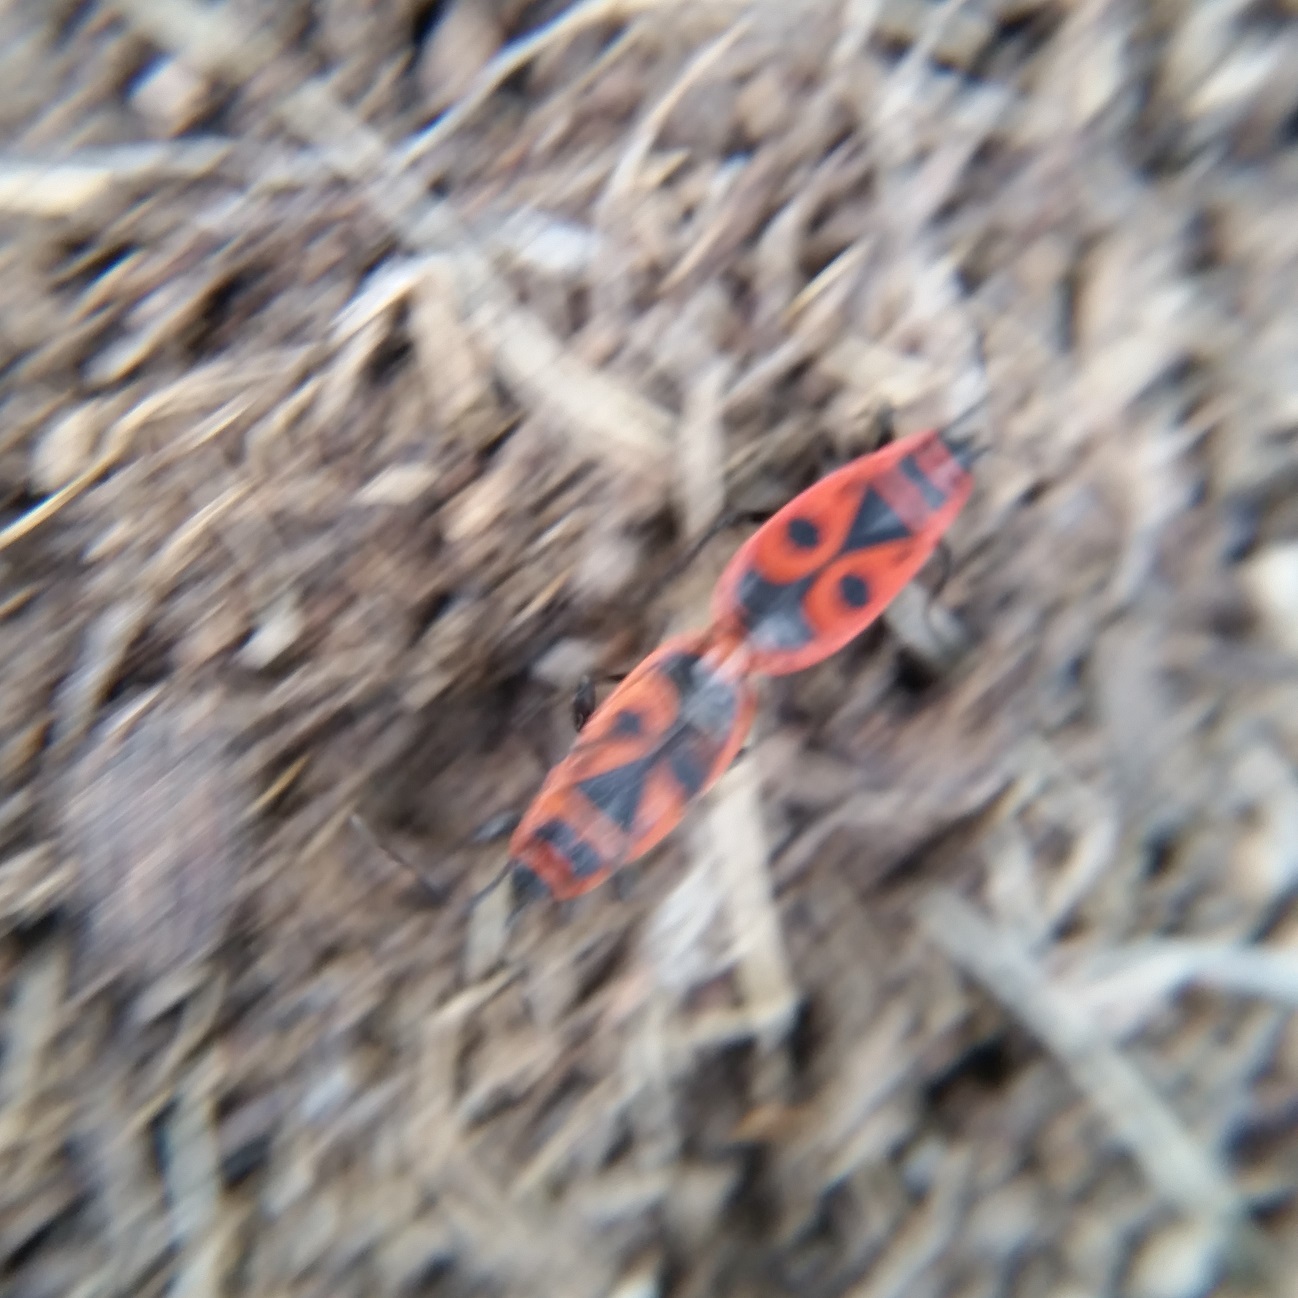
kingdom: Animalia
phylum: Arthropoda
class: Insecta
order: Hemiptera
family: Pyrrhocoridae
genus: Pyrrhocoris
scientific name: Pyrrhocoris apterus
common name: Firebug
